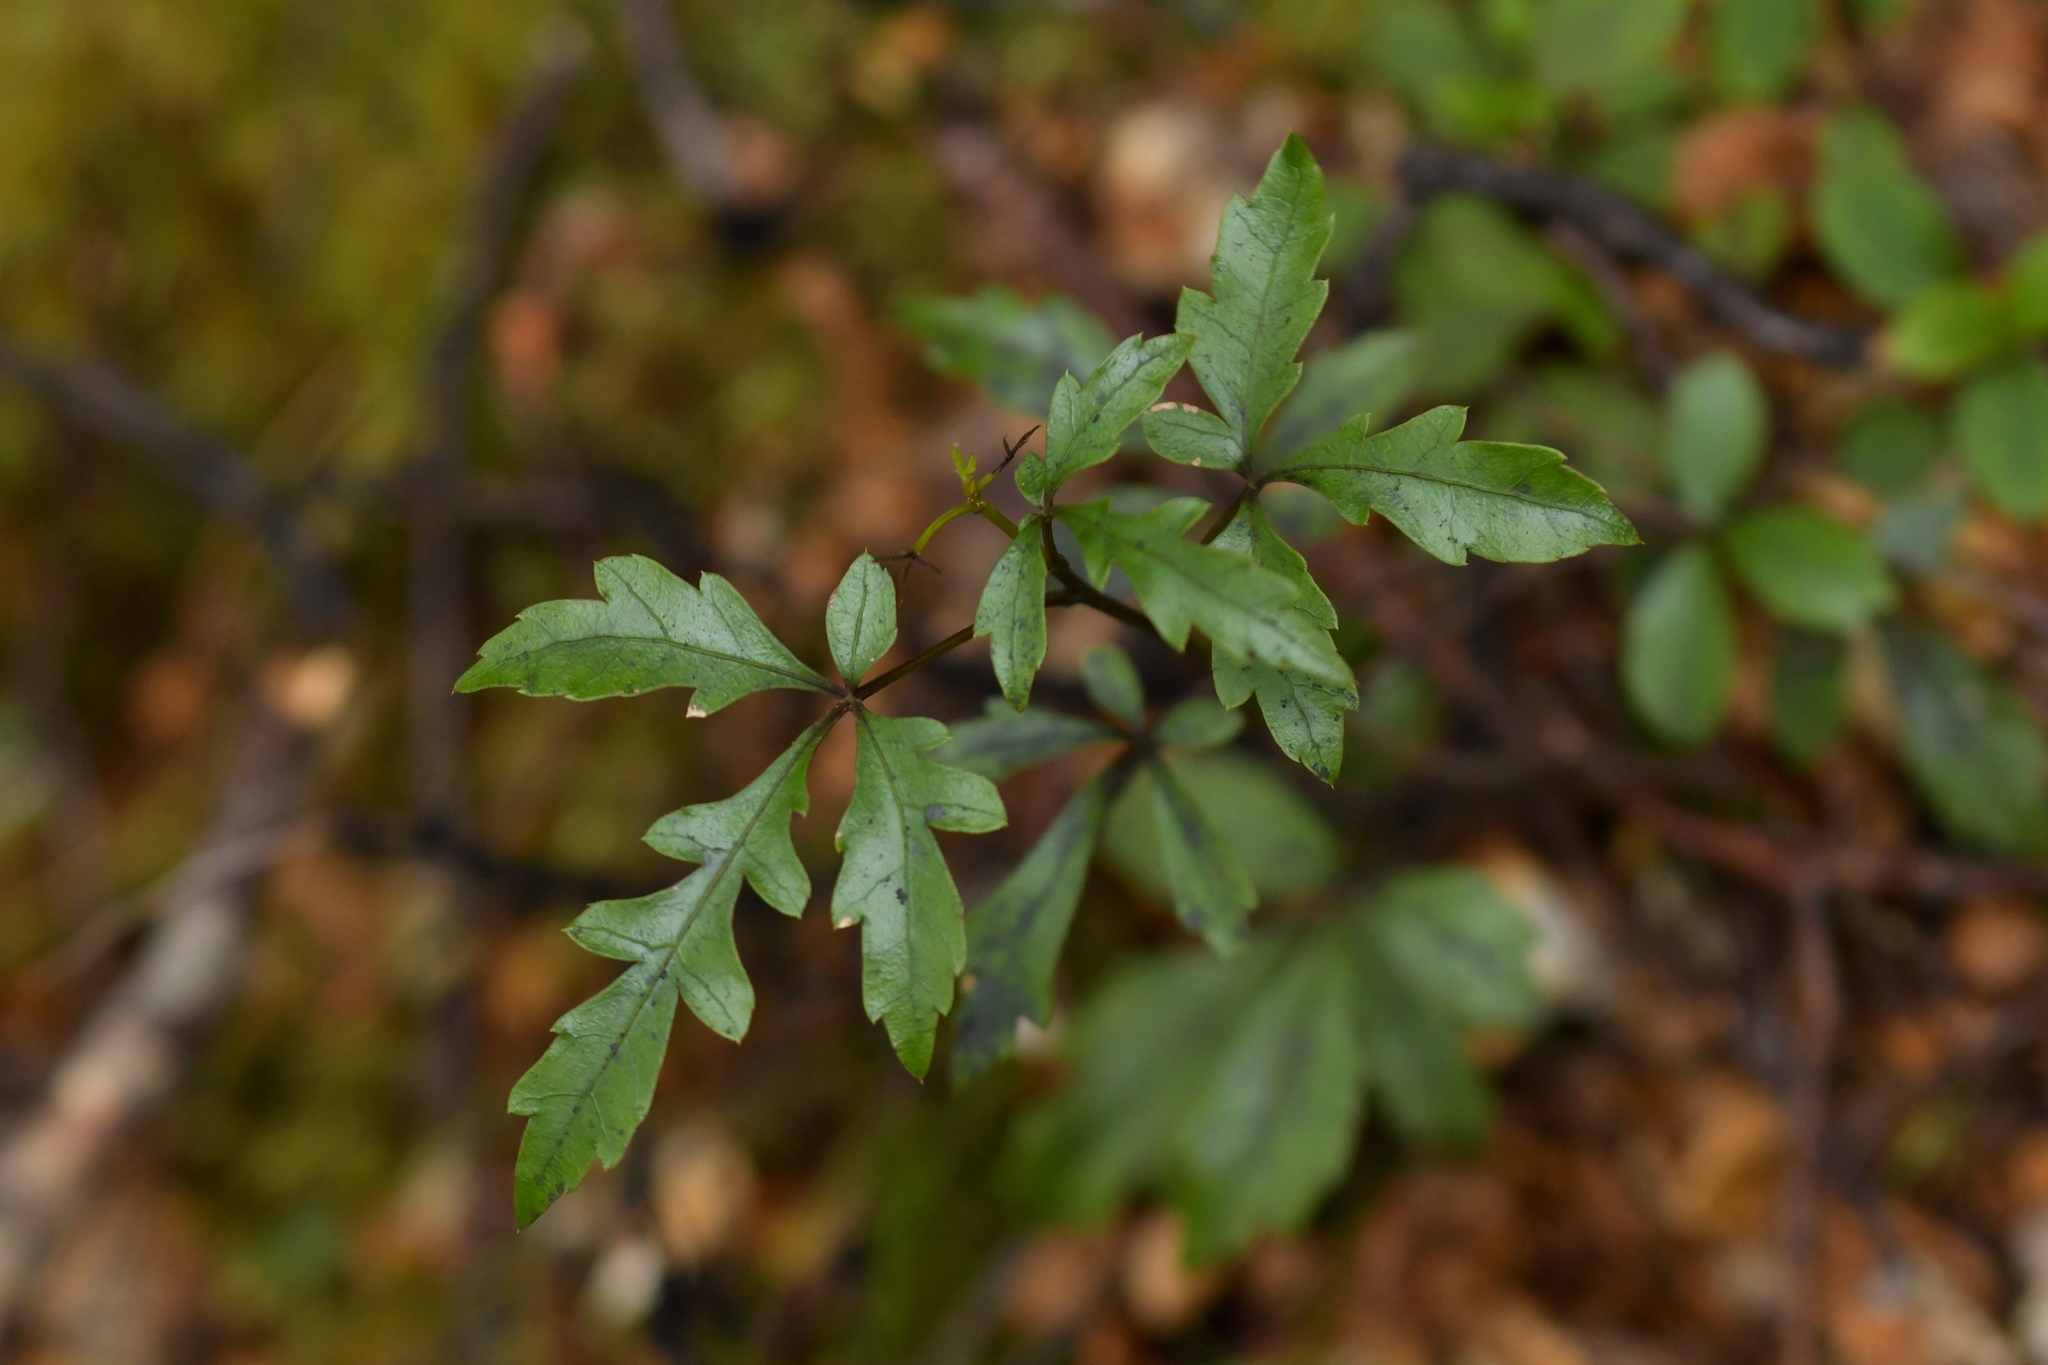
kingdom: Plantae
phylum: Tracheophyta
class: Magnoliopsida
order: Apiales
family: Araliaceae
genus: Raukaua
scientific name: Raukaua simplex
